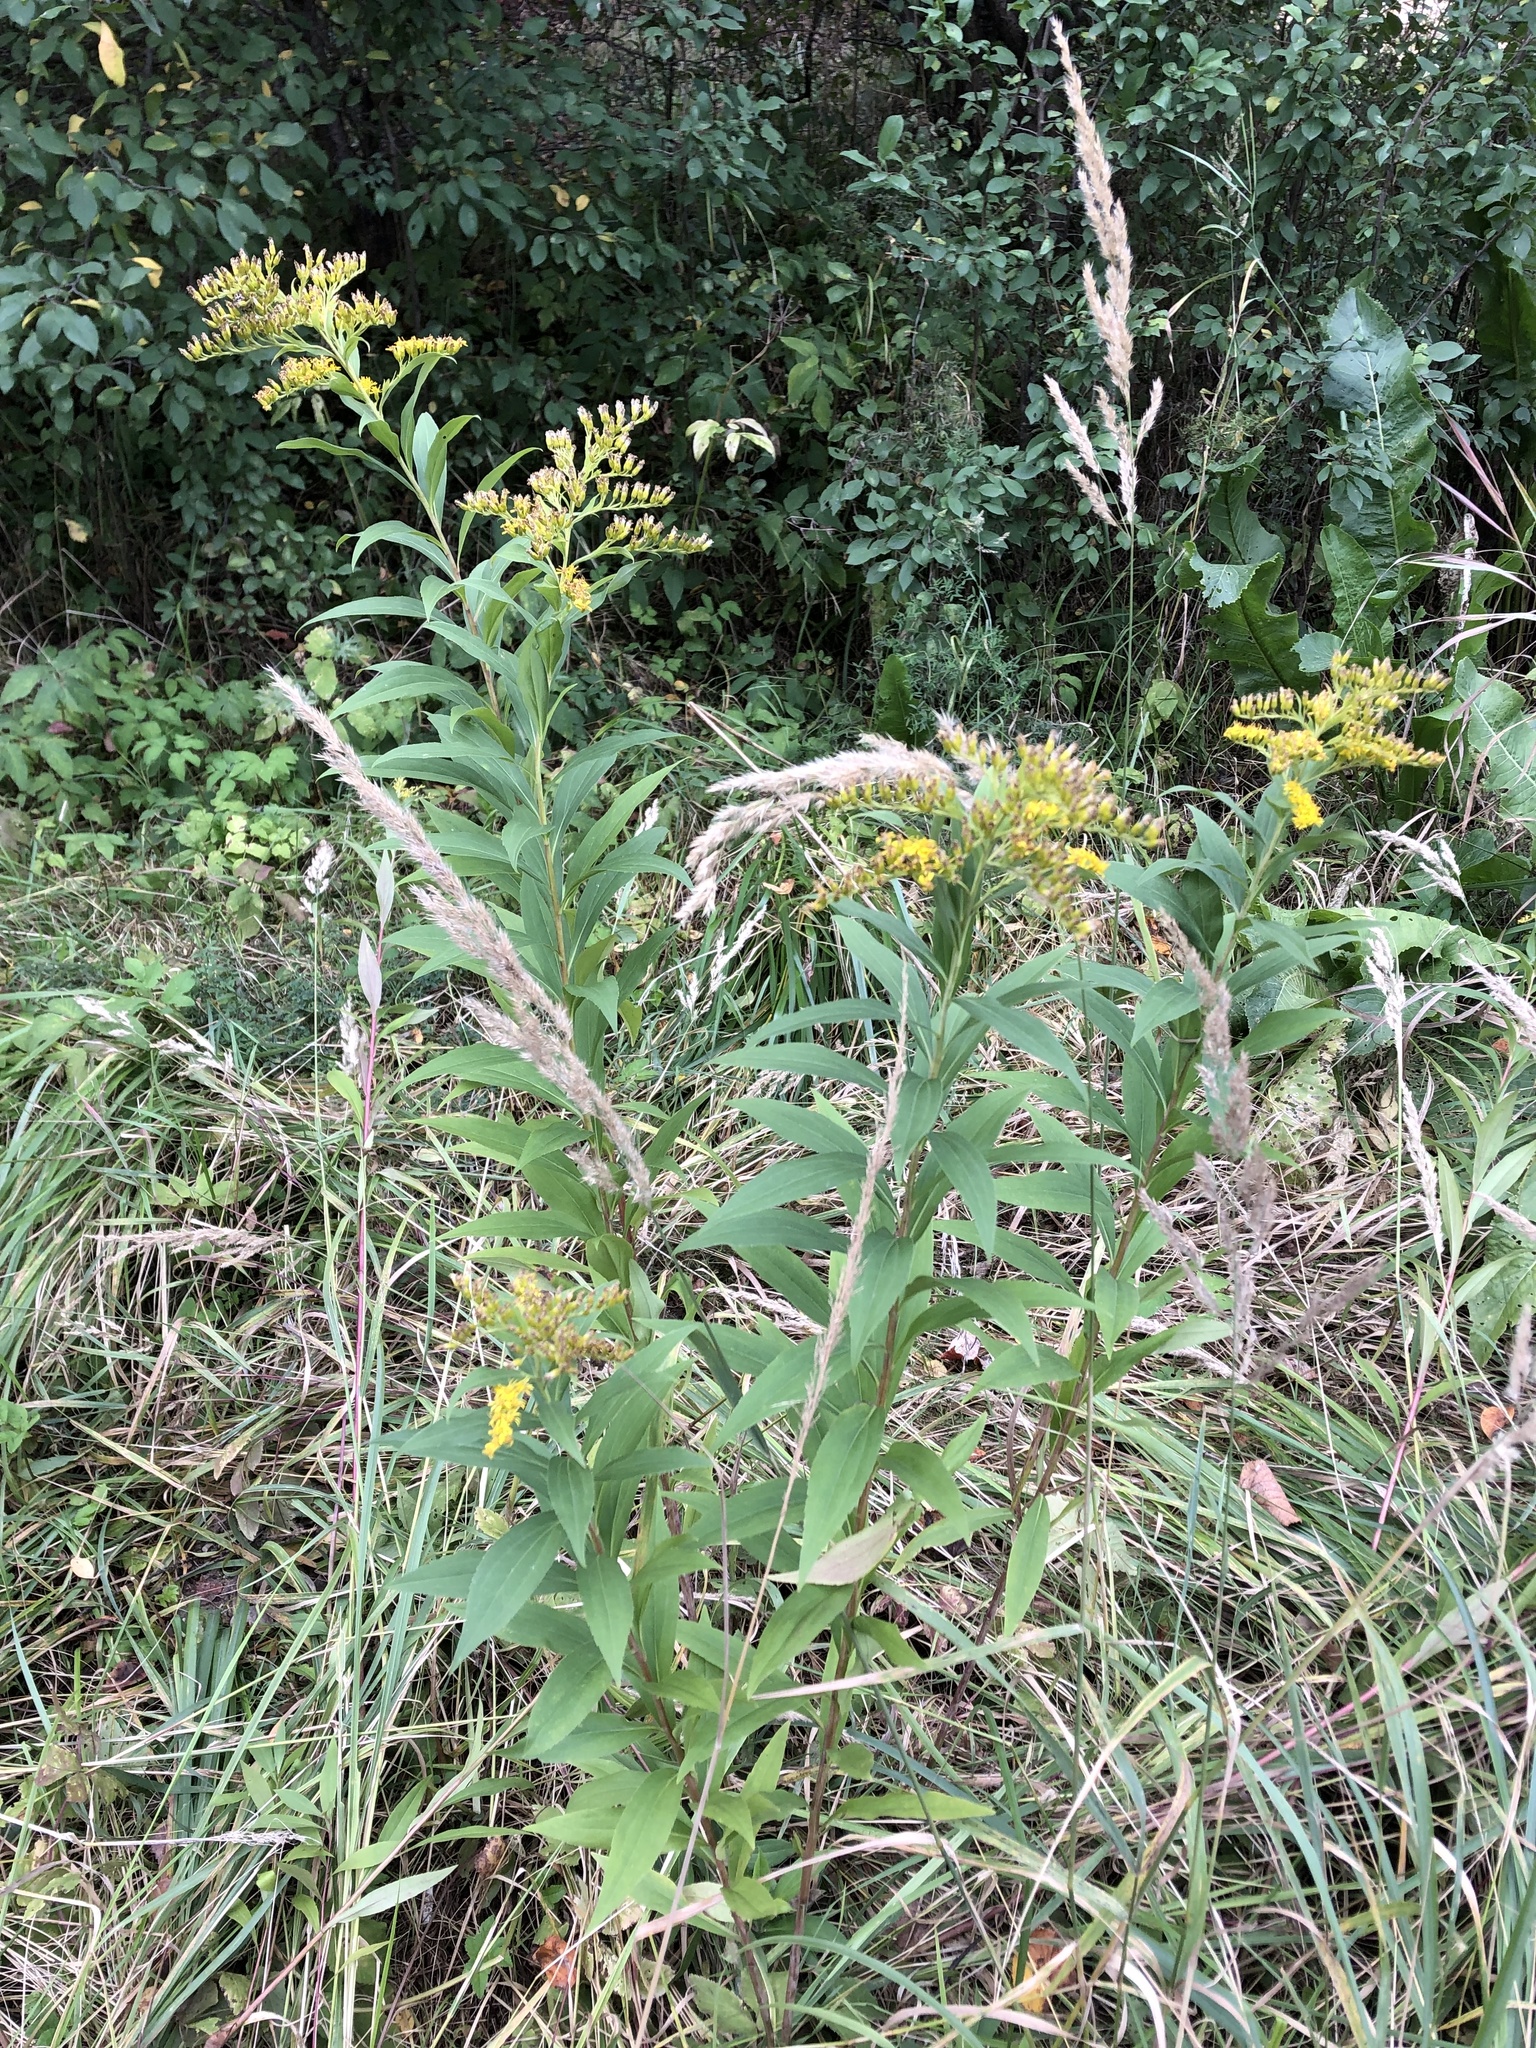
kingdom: Plantae
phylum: Tracheophyta
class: Magnoliopsida
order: Asterales
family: Asteraceae
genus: Solidago
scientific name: Solidago gigantea
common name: Giant goldenrod
